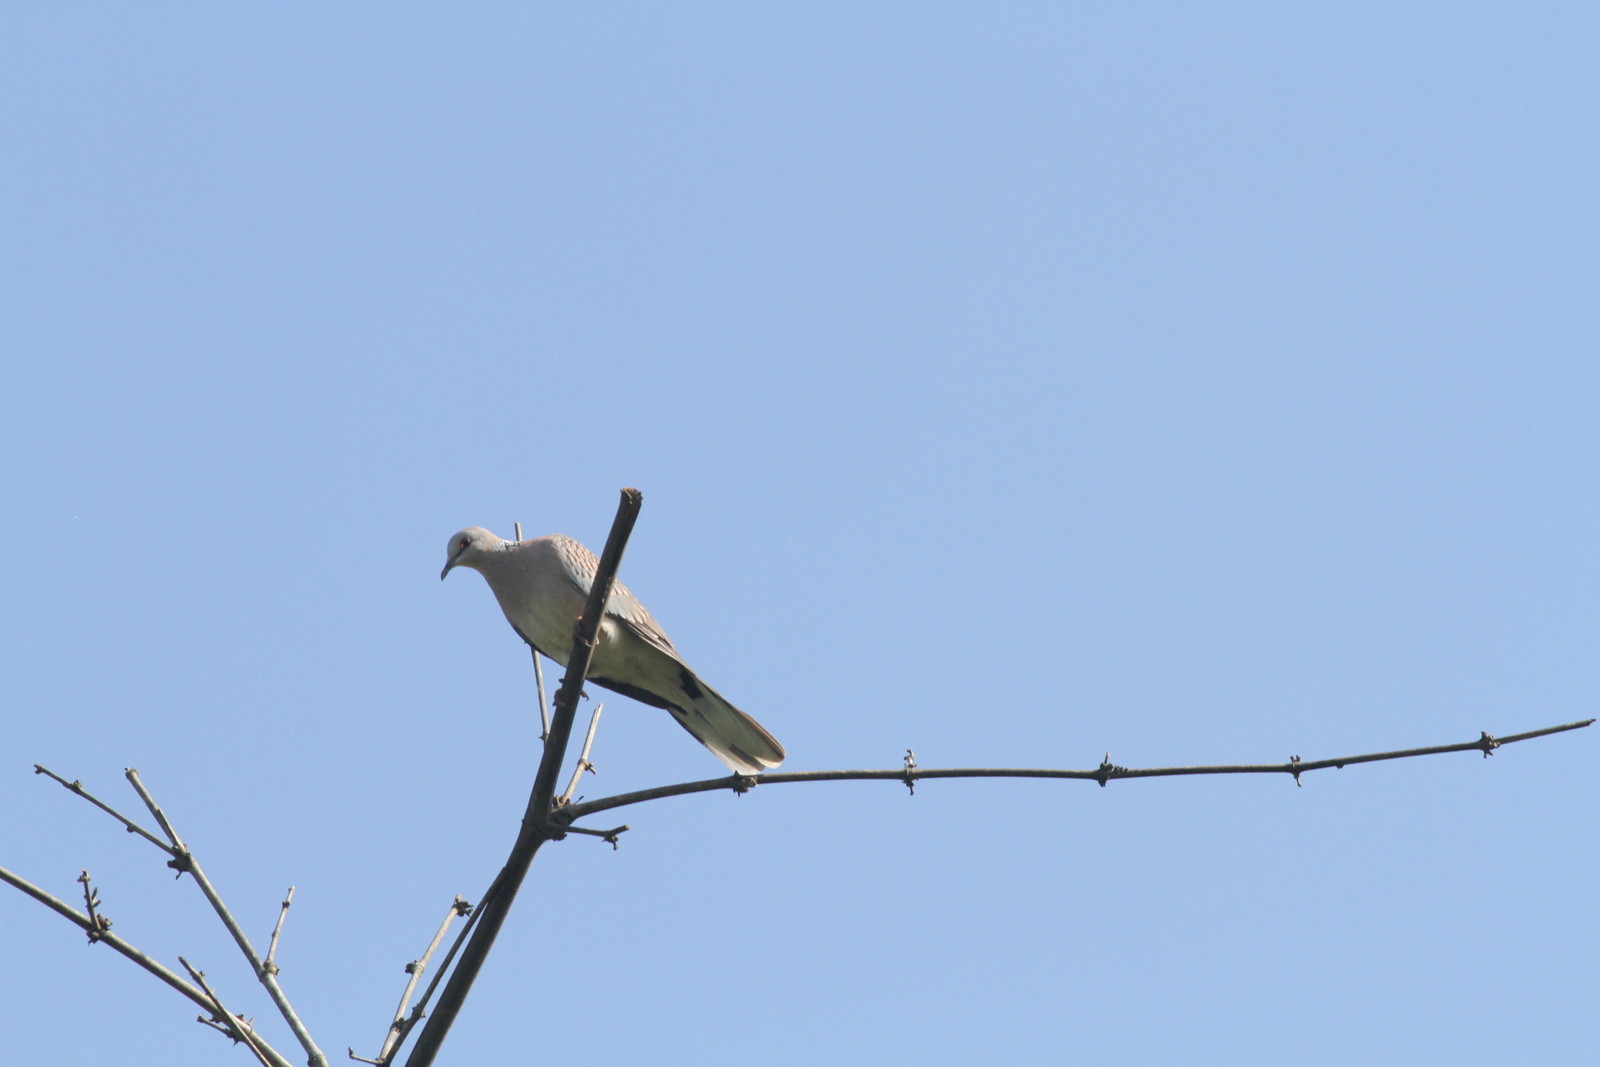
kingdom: Animalia
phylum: Chordata
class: Aves
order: Columbiformes
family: Columbidae
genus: Spilopelia
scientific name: Spilopelia chinensis
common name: Spotted dove
